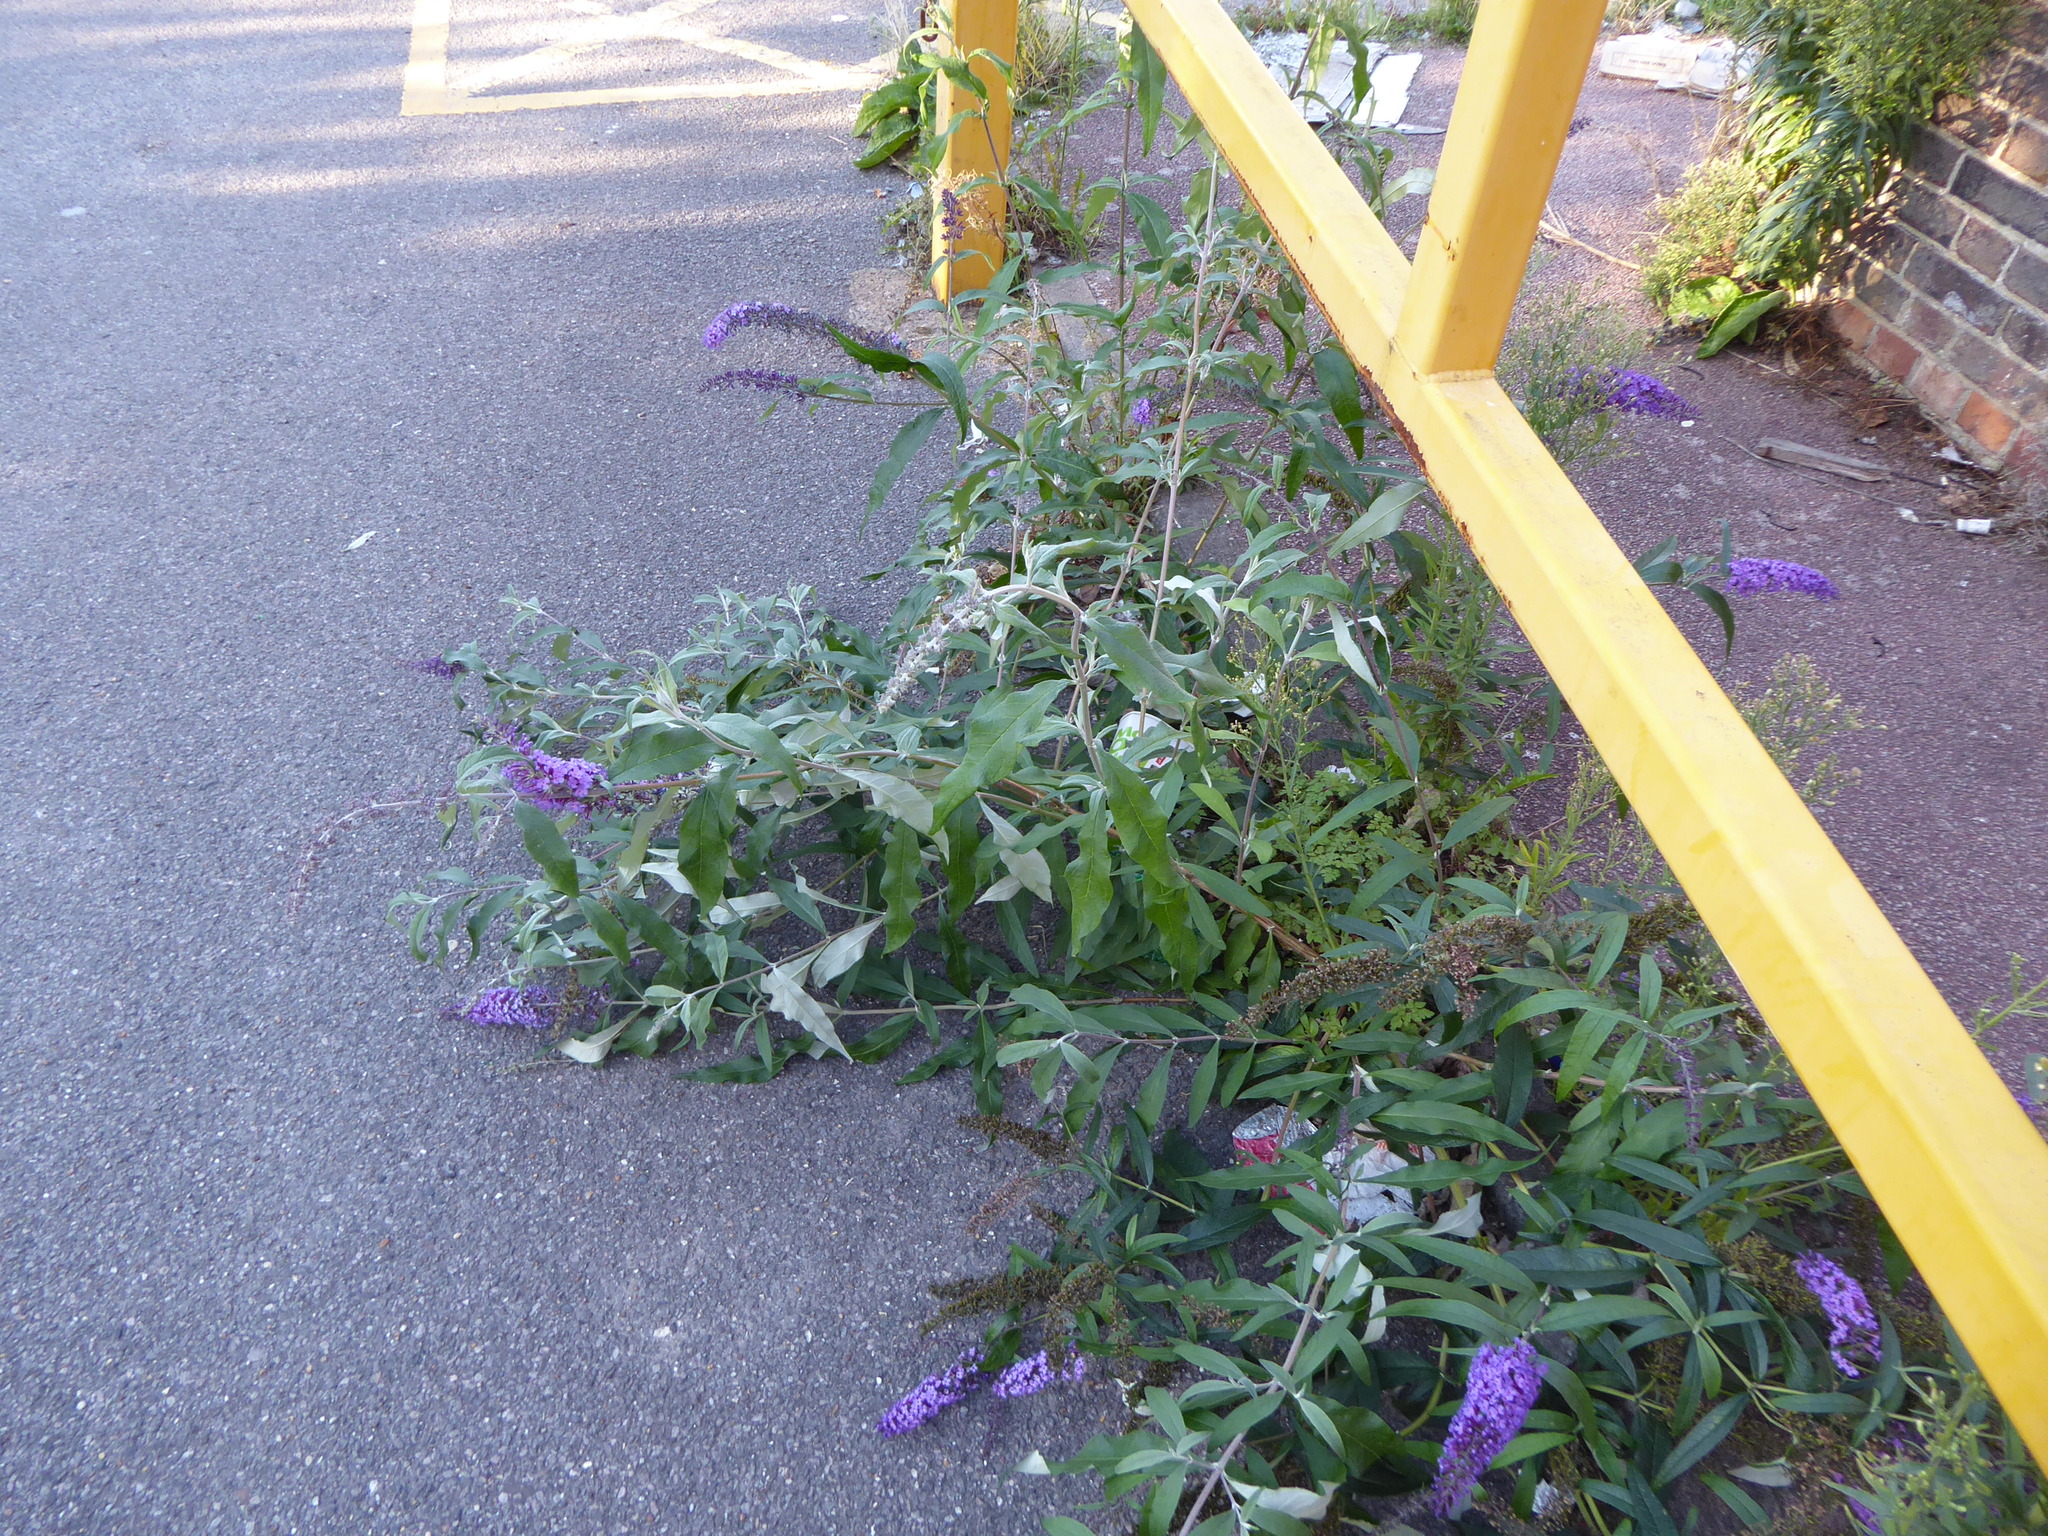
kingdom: Plantae
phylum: Tracheophyta
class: Magnoliopsida
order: Lamiales
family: Scrophulariaceae
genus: Buddleja
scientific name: Buddleja davidii
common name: Butterfly-bush
